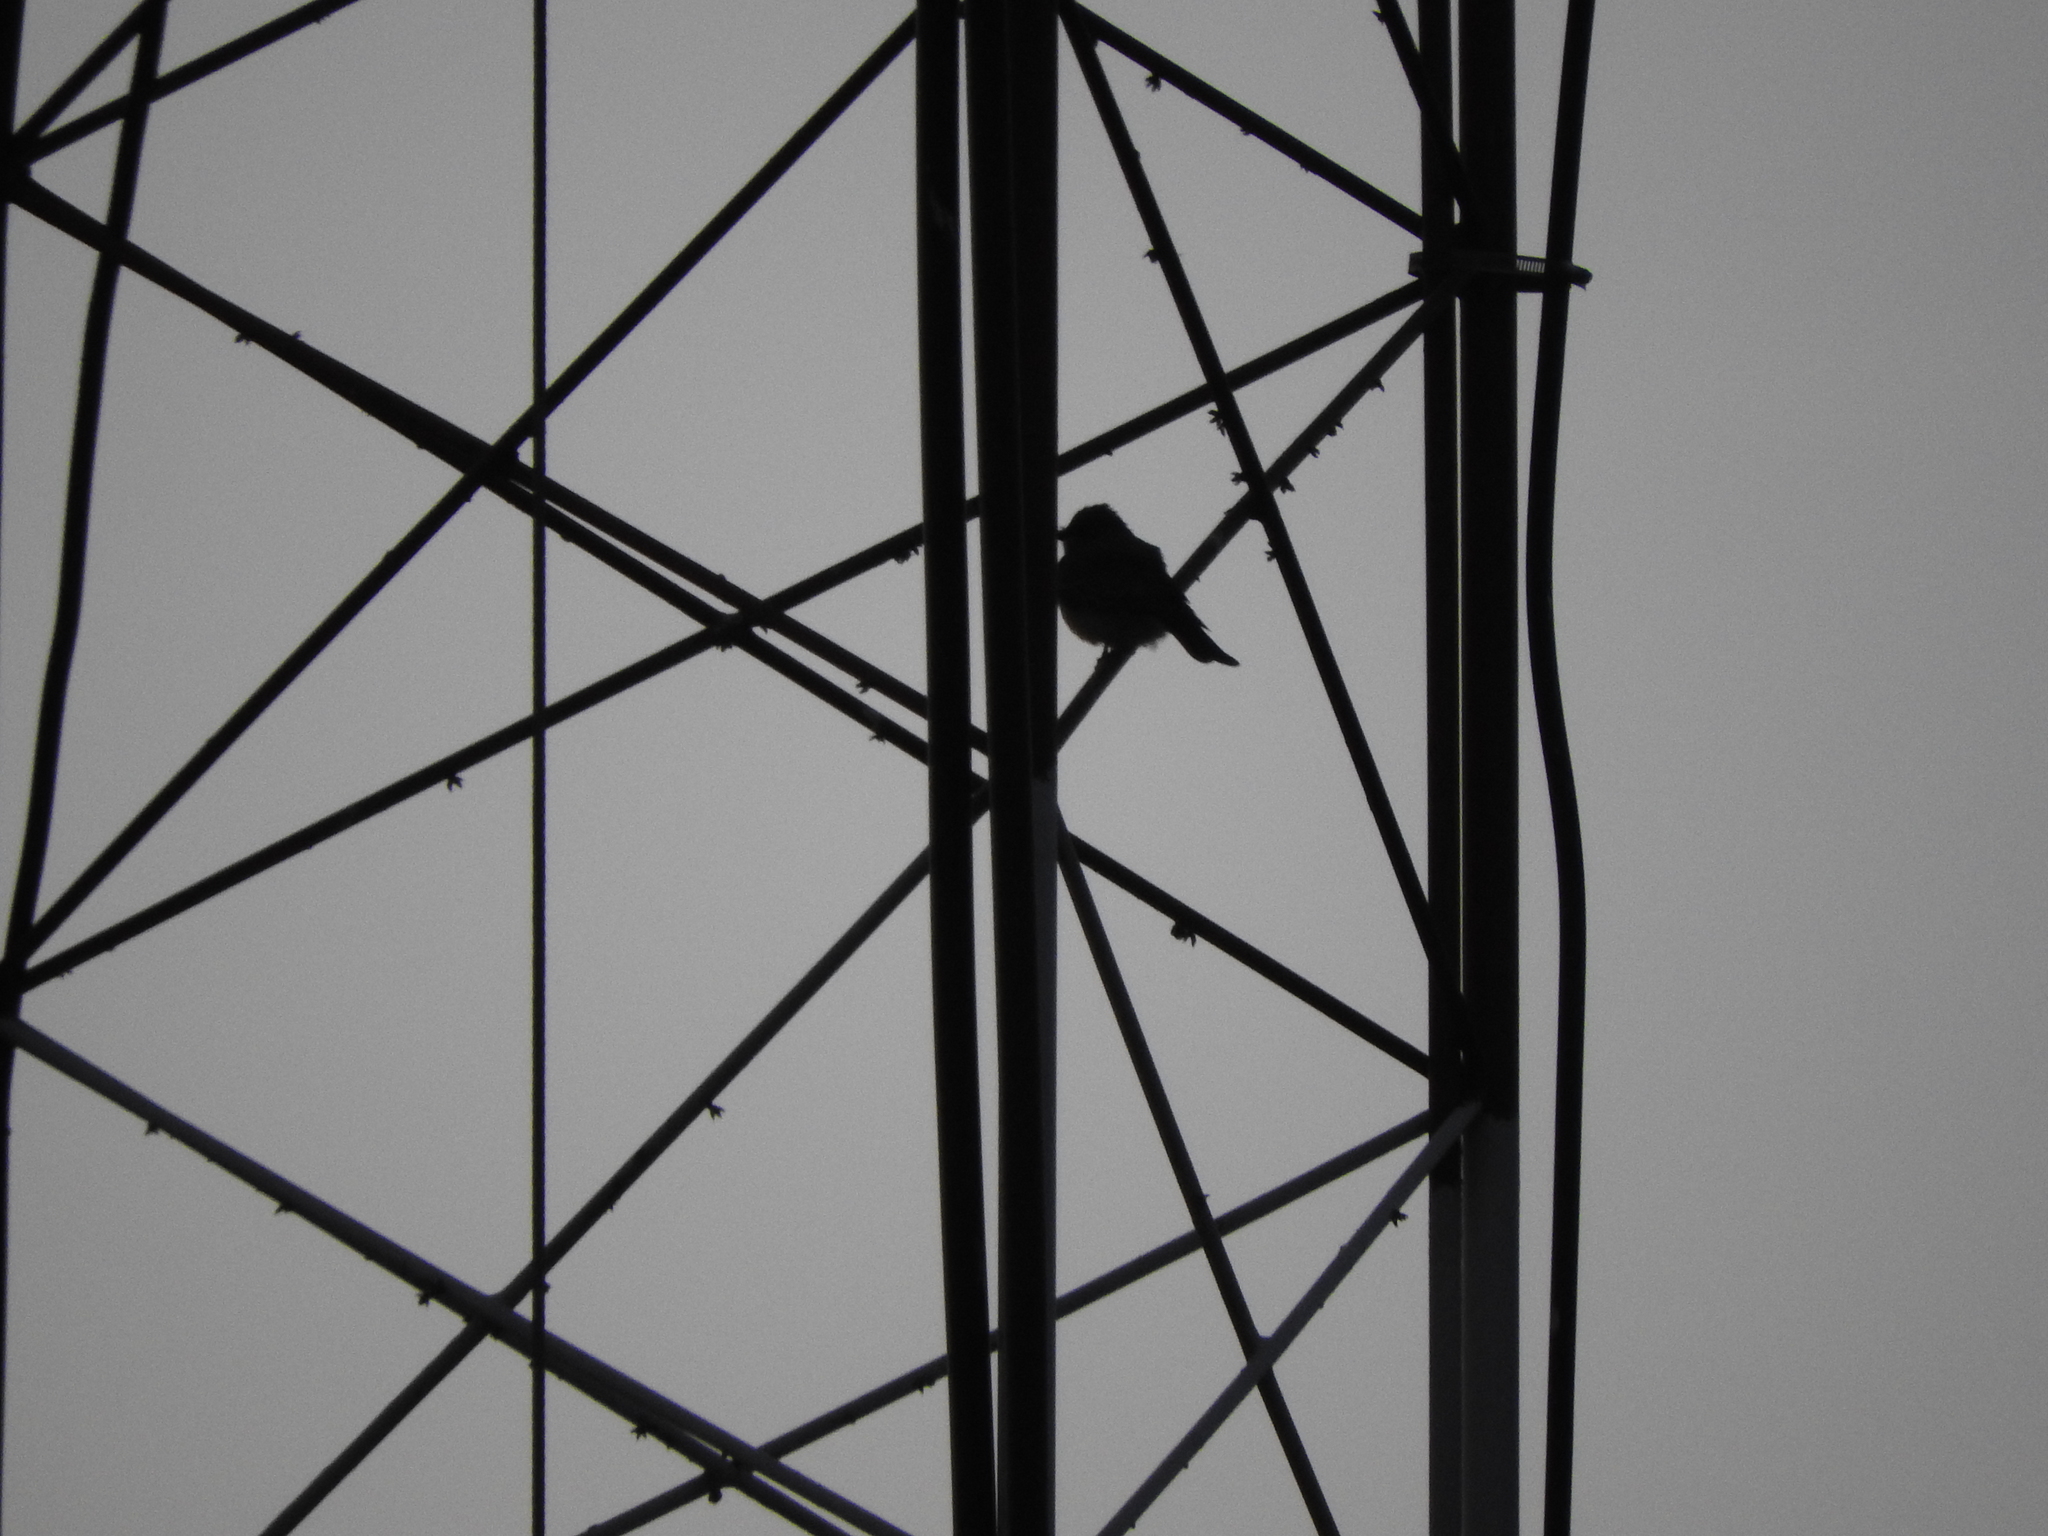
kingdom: Animalia
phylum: Chordata
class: Aves
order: Passeriformes
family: Tyrannidae
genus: Tyrannus
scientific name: Tyrannus vociferans
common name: Cassin's kingbird
